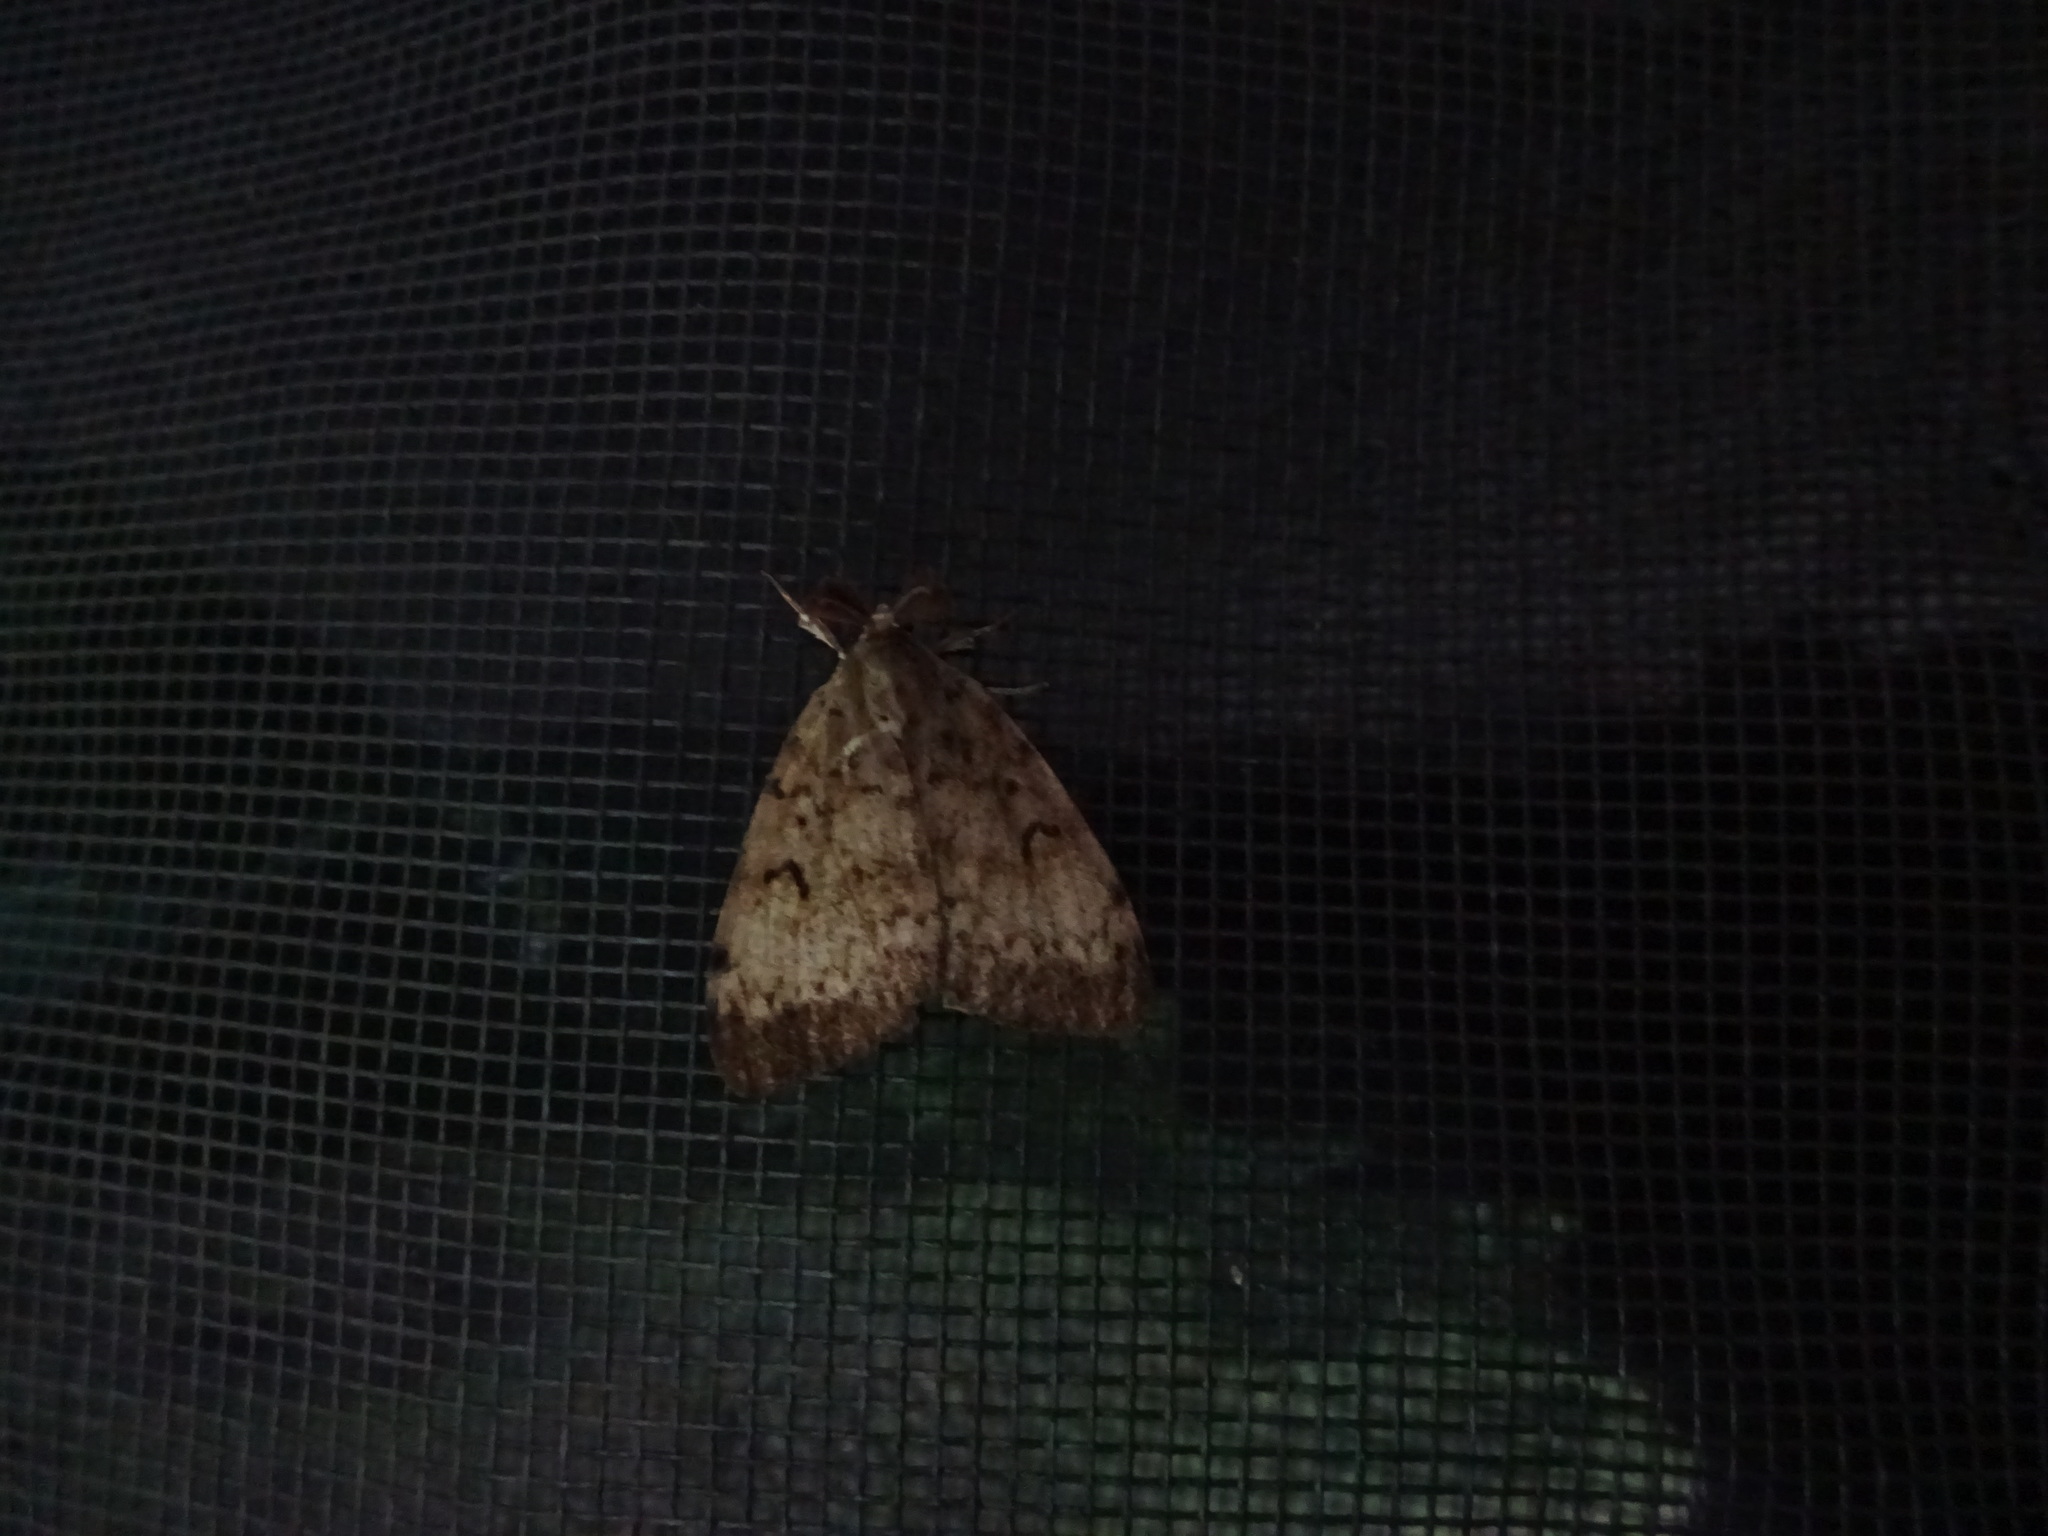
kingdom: Animalia
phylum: Arthropoda
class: Insecta
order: Lepidoptera
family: Erebidae
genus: Lymantria
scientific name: Lymantria dispar
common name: Gypsy moth
